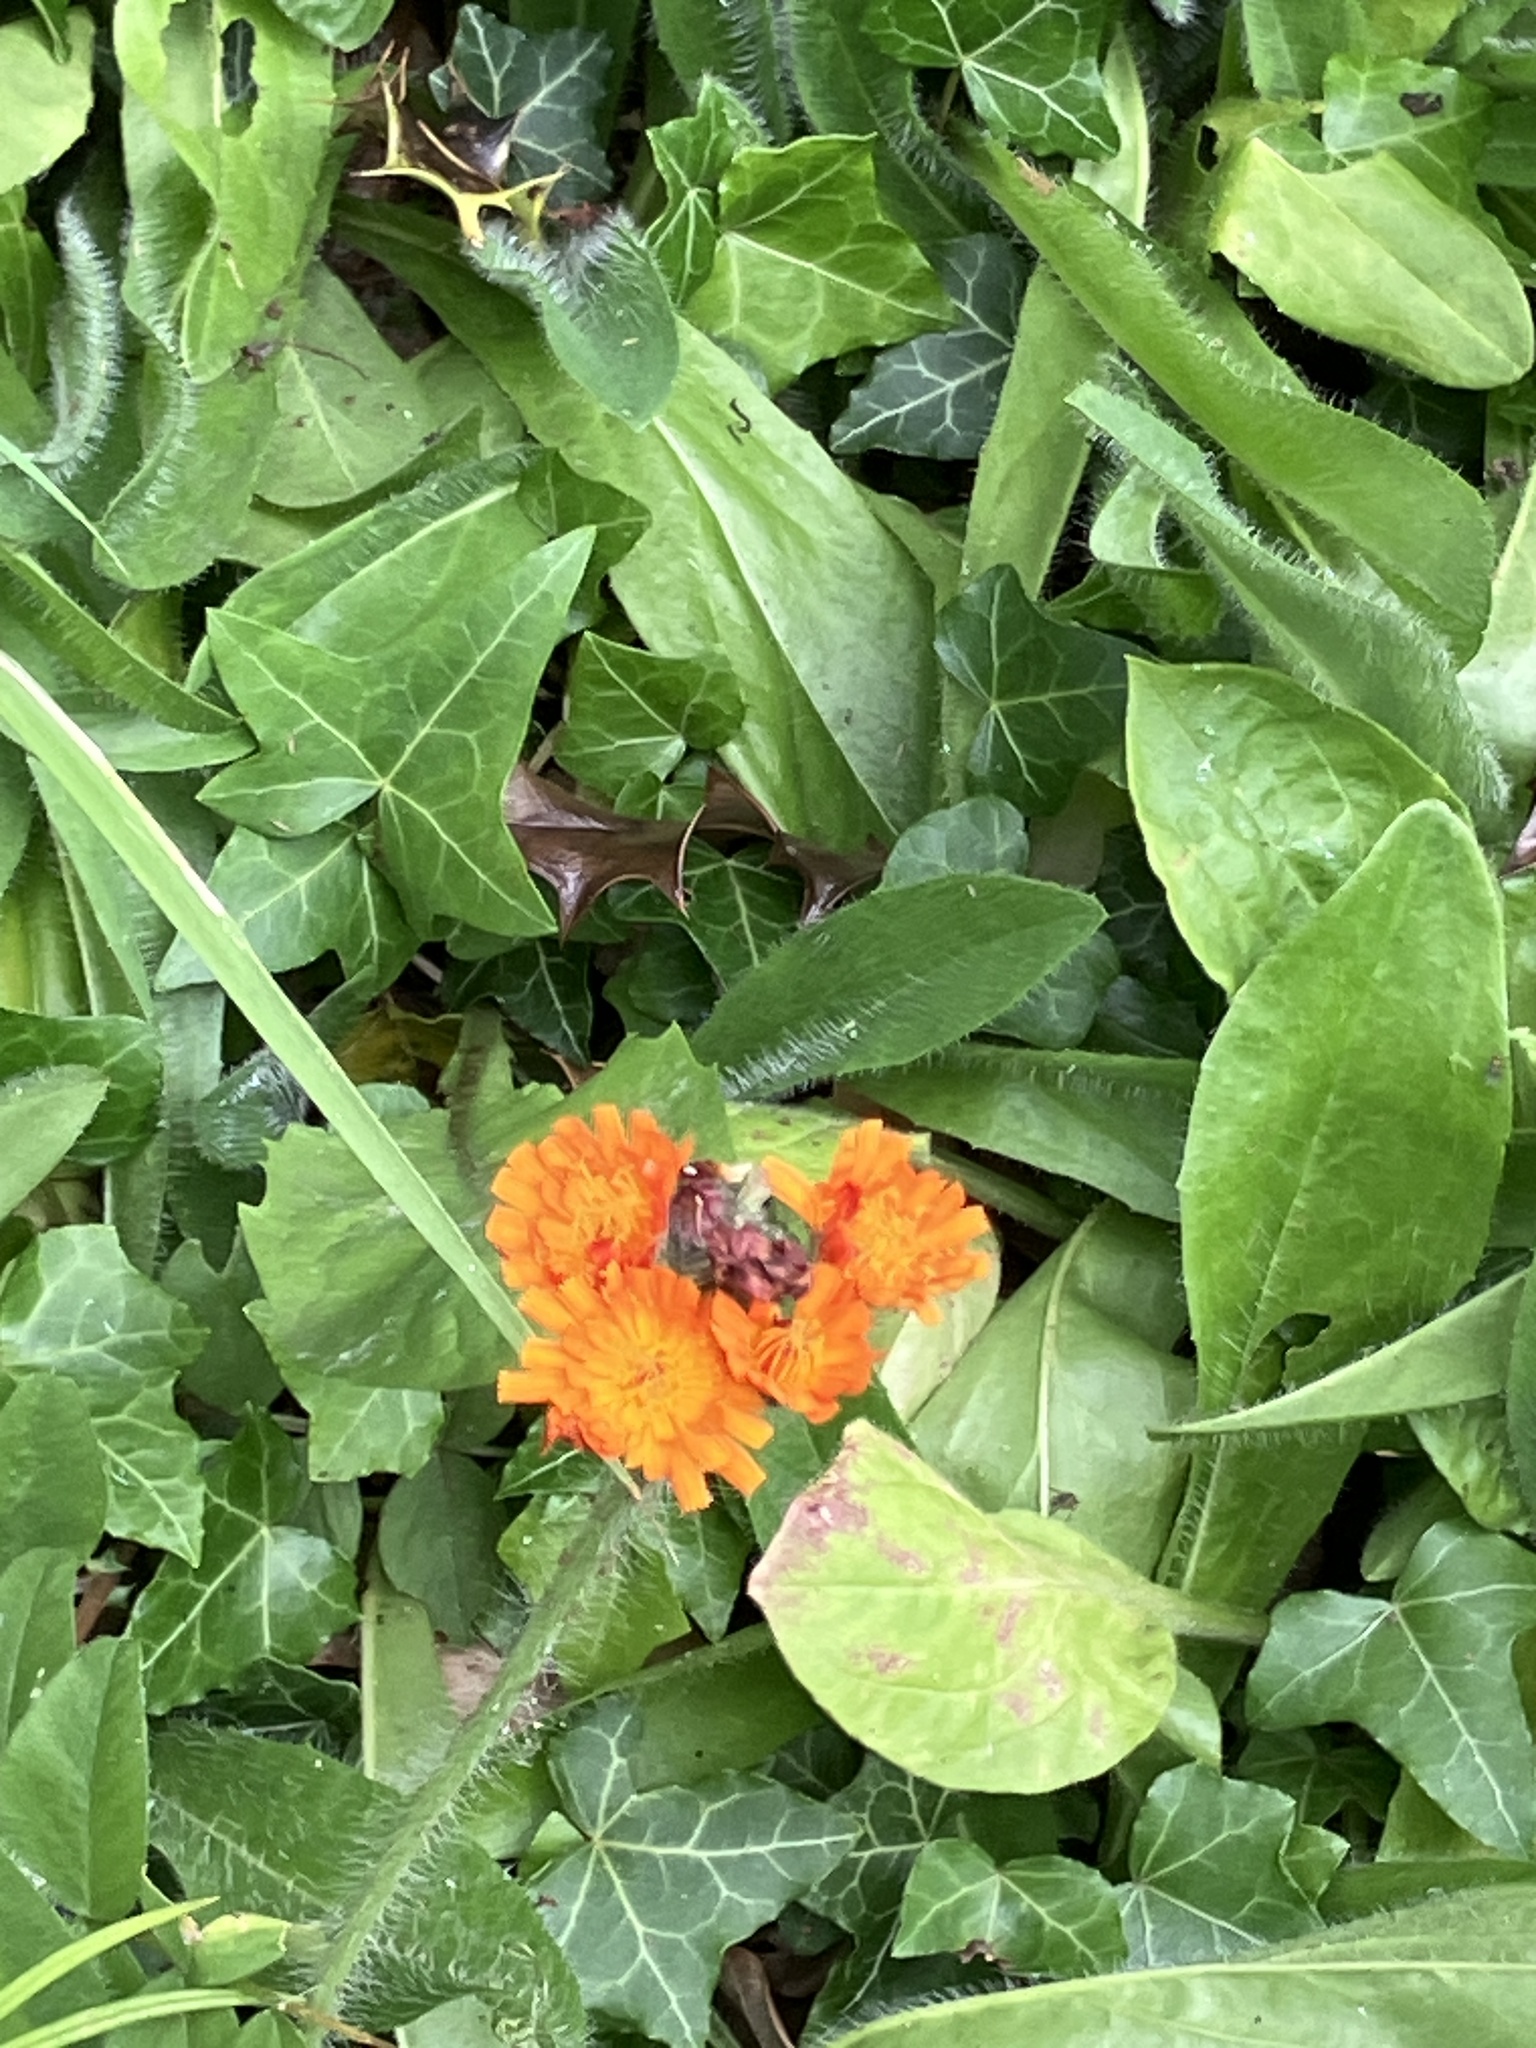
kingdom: Plantae
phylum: Tracheophyta
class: Magnoliopsida
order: Asterales
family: Asteraceae
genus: Pilosella
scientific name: Pilosella aurantiaca
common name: Fox-and-cubs
